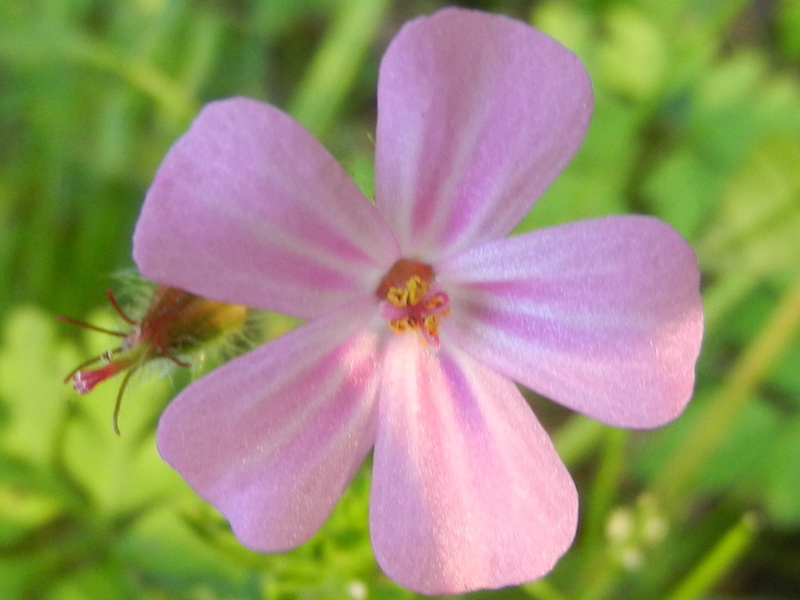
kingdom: Plantae
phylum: Tracheophyta
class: Magnoliopsida
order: Geraniales
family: Geraniaceae
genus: Geranium
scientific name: Geranium robertianum
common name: Herb-robert
